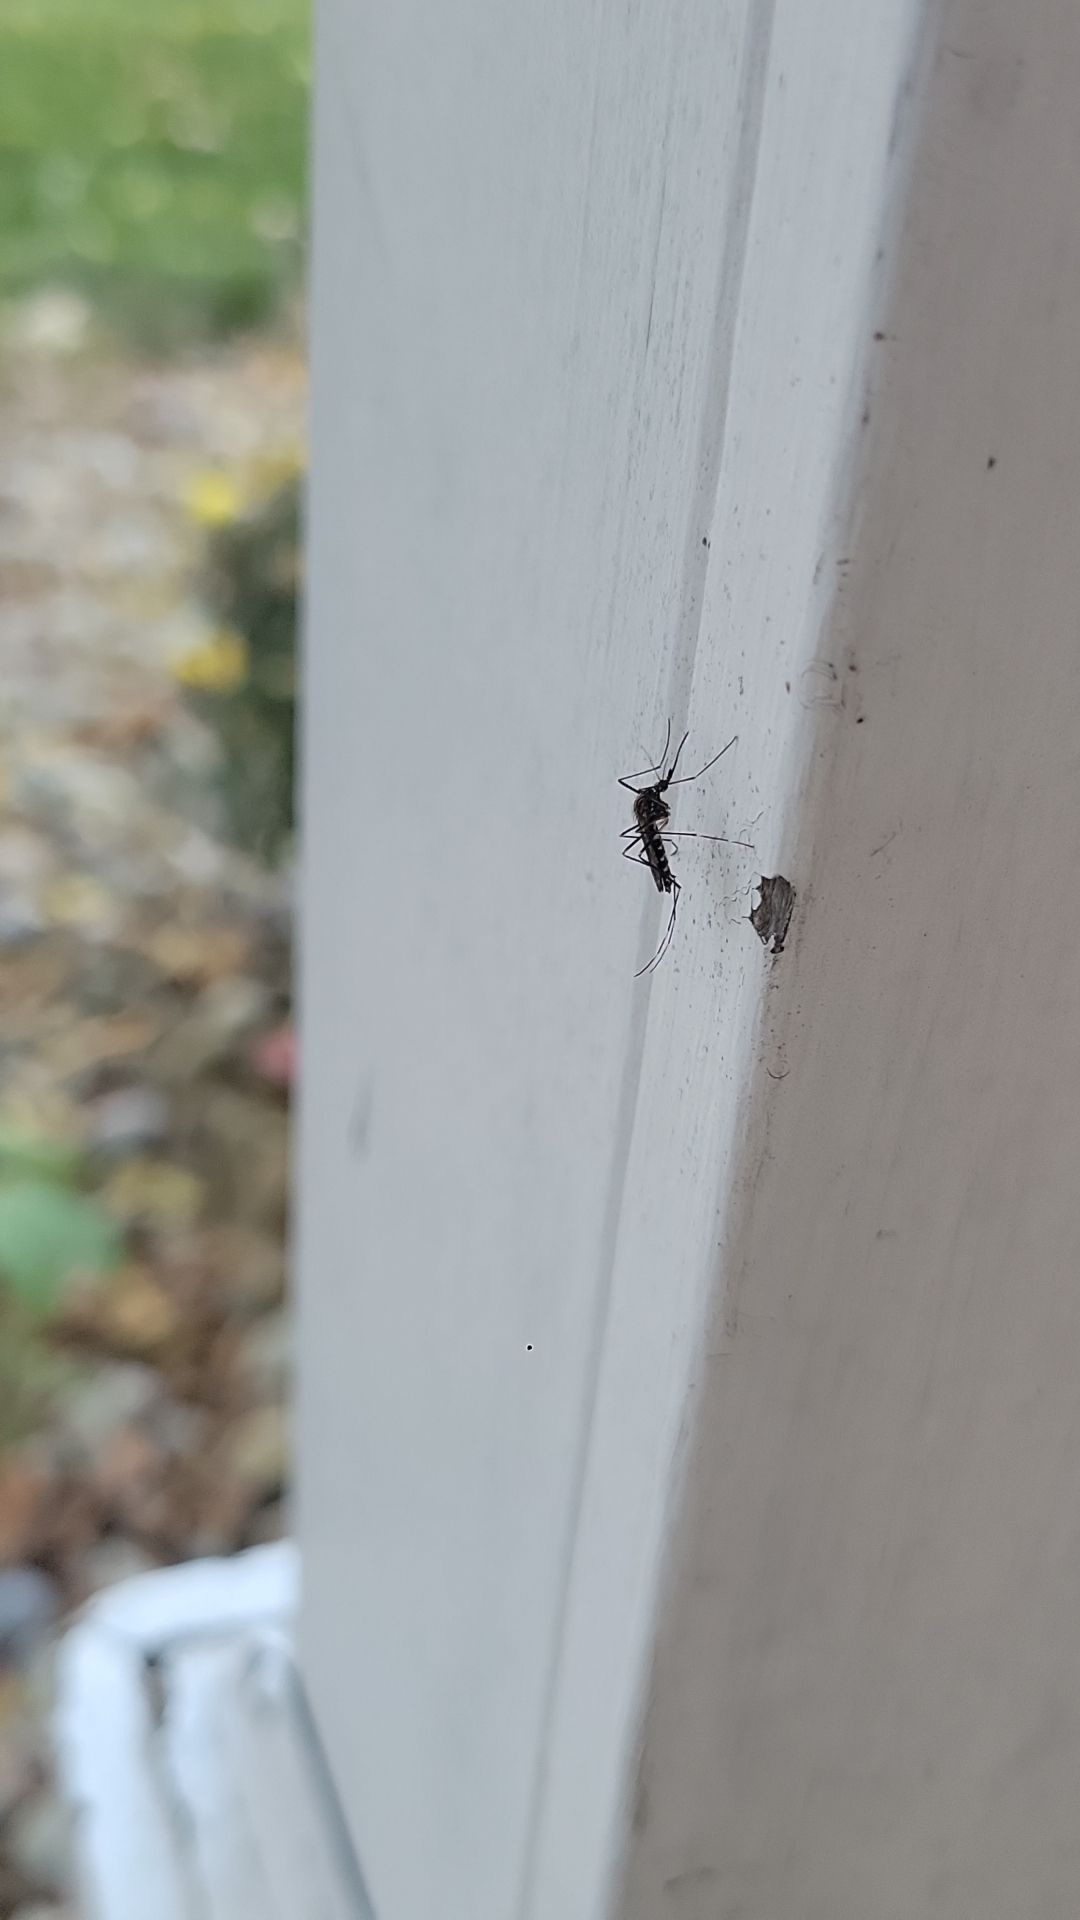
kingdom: Animalia
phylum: Arthropoda
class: Insecta
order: Diptera
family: Culicidae
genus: Aedes
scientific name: Aedes japonicus
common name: Asian bush mosquito
